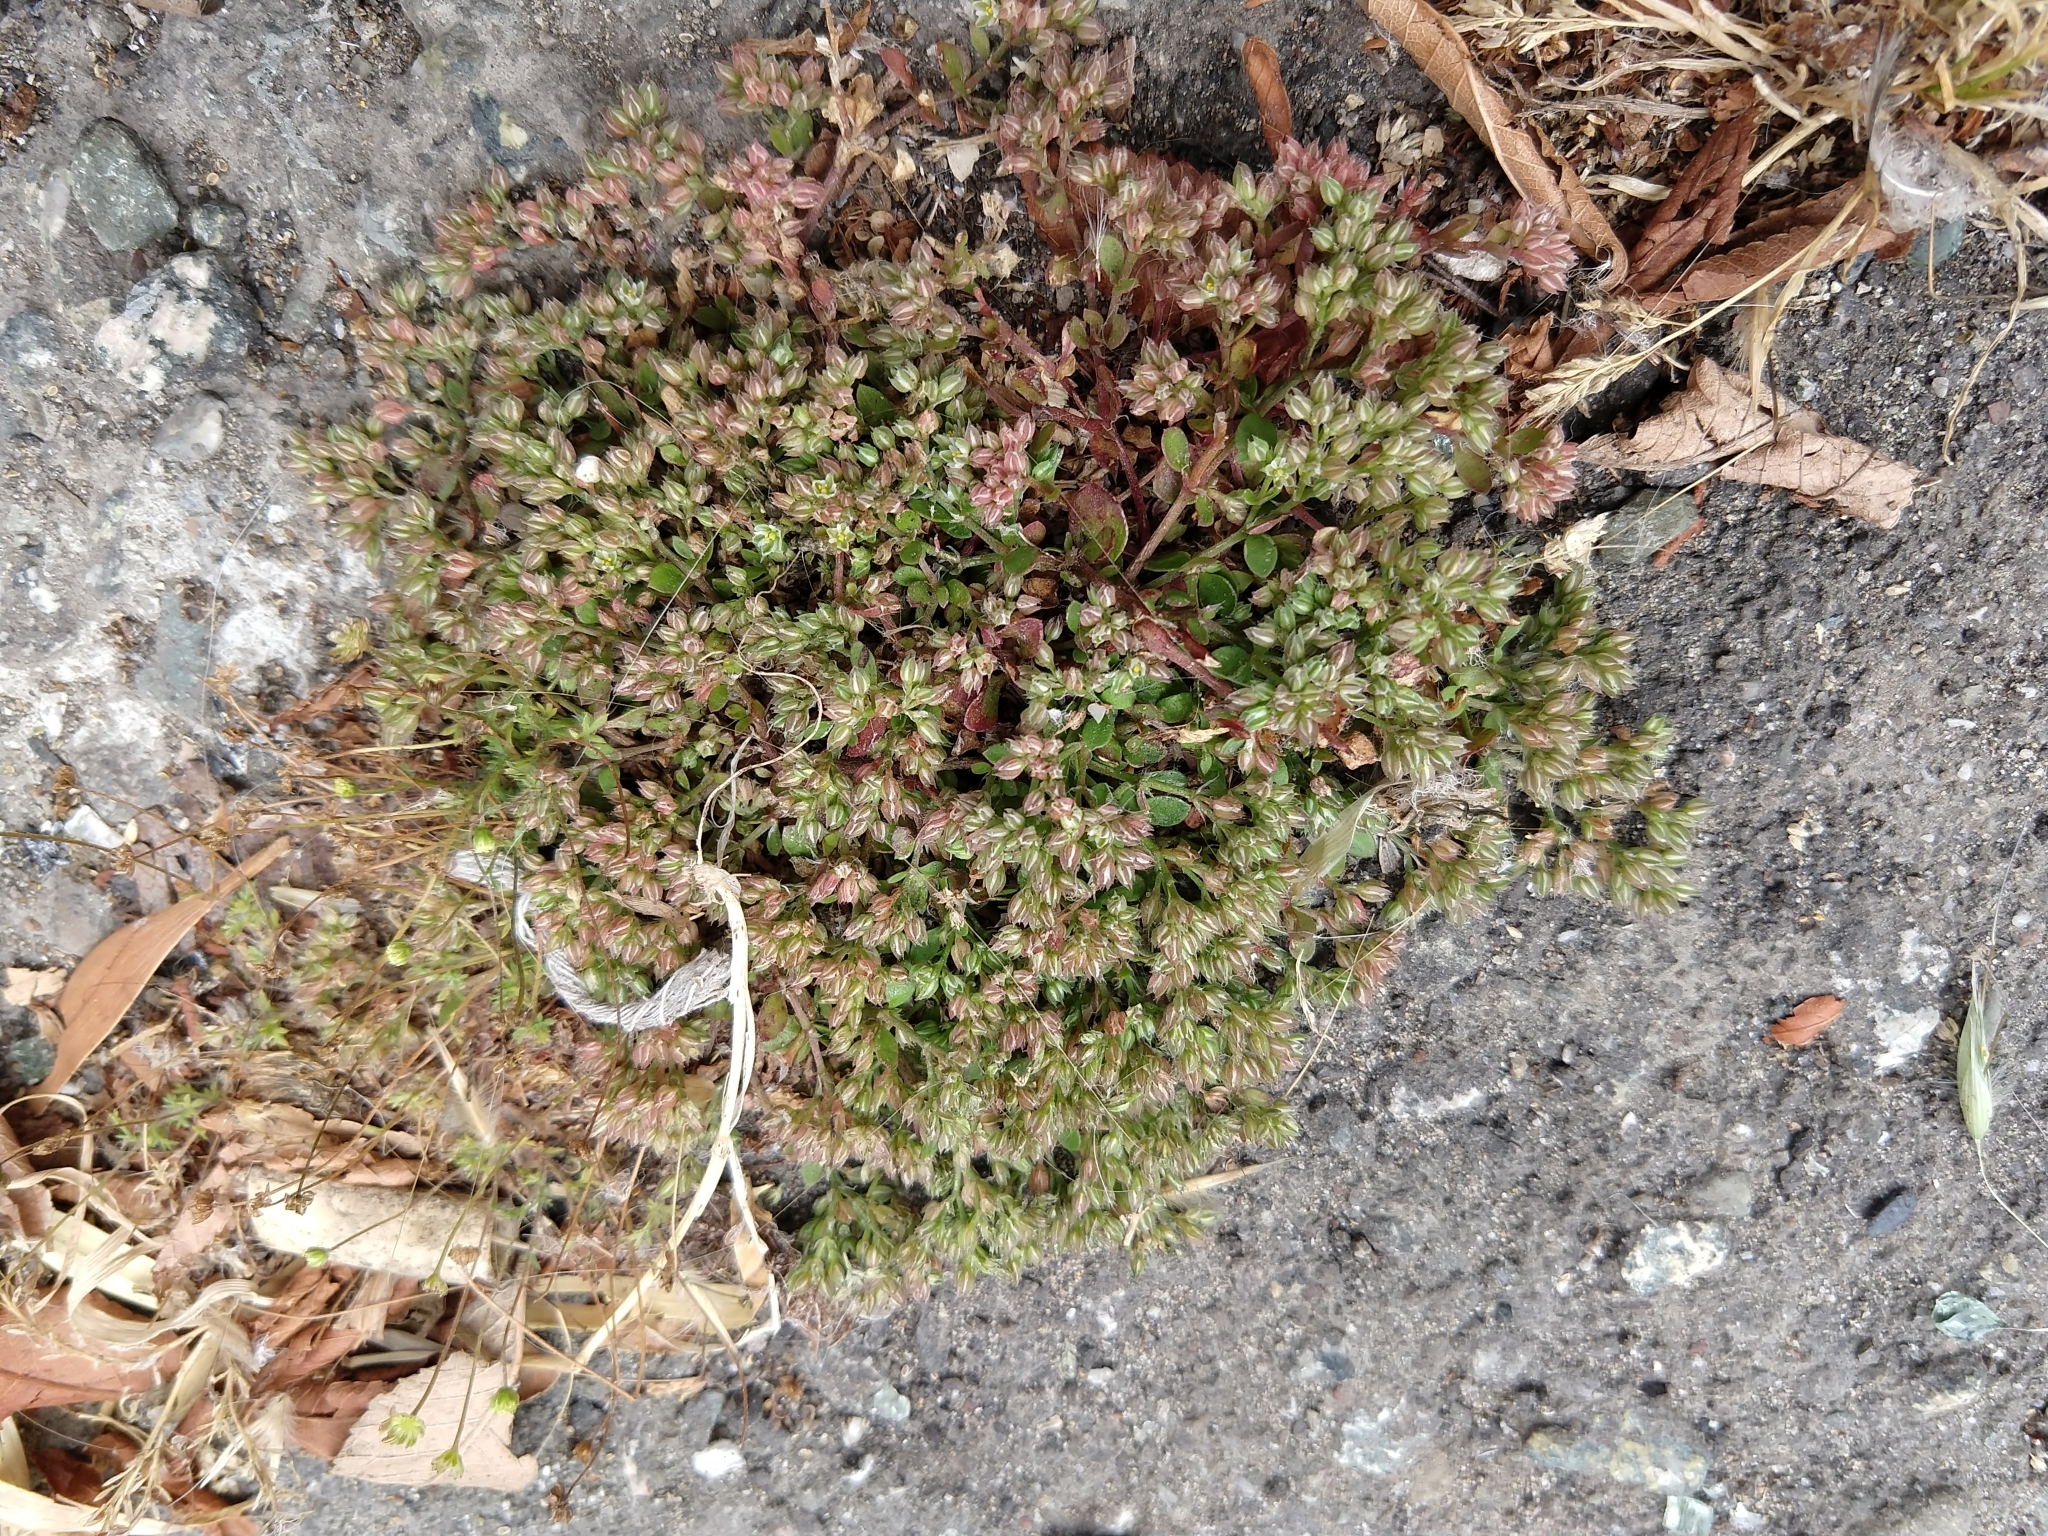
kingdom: Plantae
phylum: Tracheophyta
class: Magnoliopsida
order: Caryophyllales
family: Caryophyllaceae
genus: Polycarpon
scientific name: Polycarpon tetraphyllum
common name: Four-leaved all-seed
